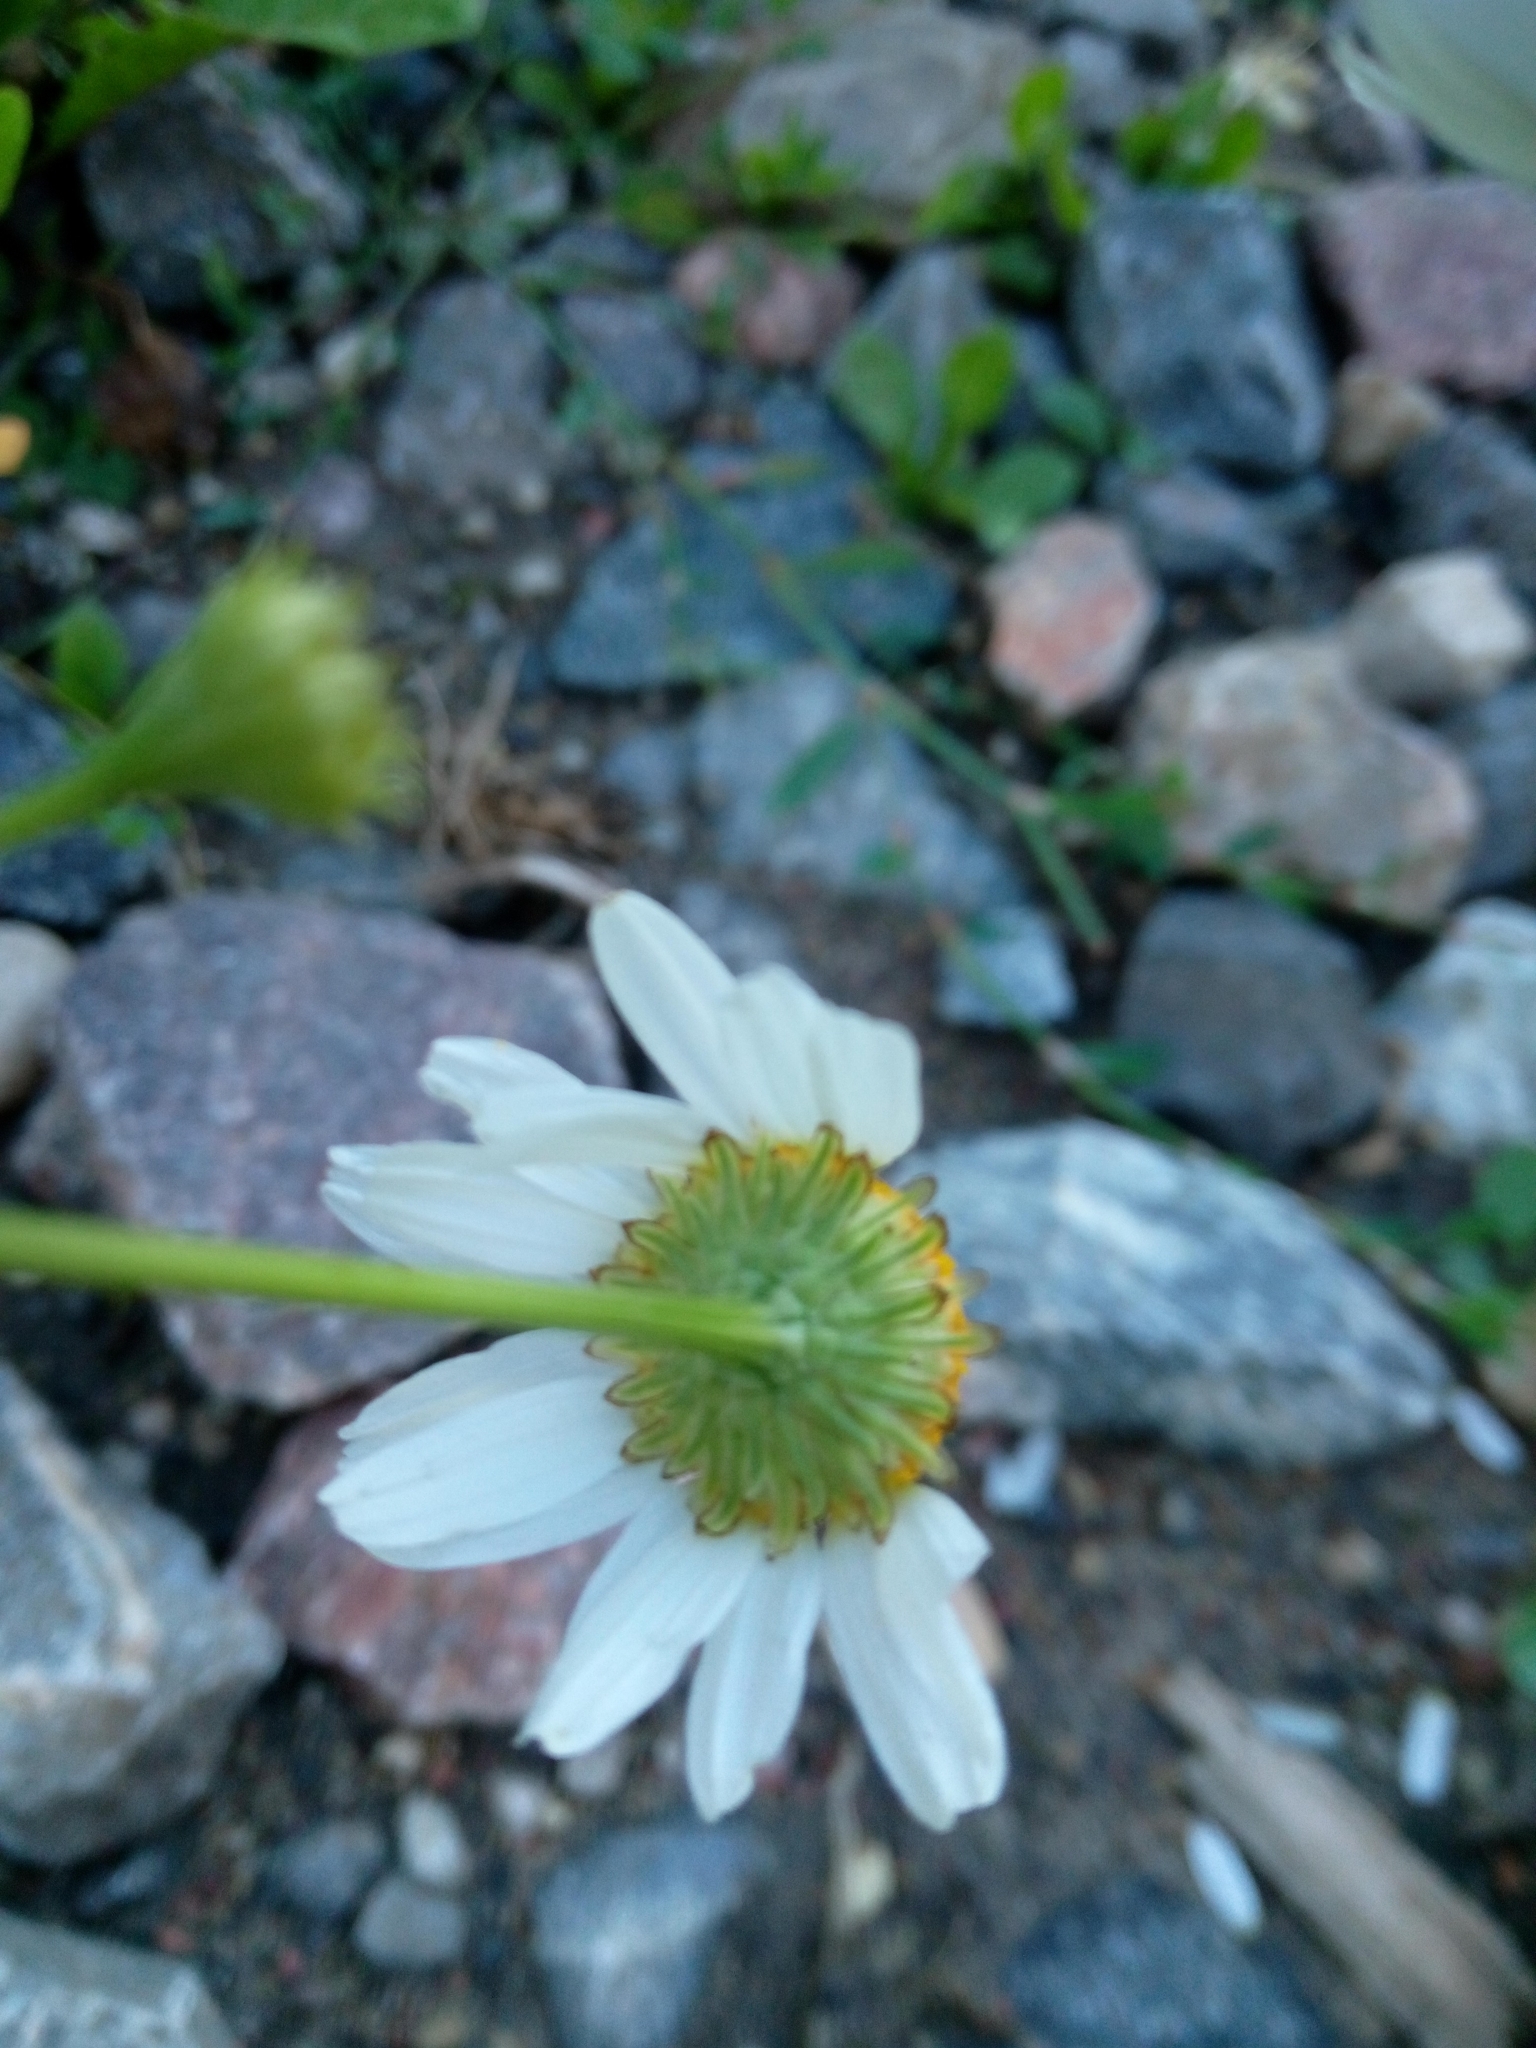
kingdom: Plantae
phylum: Tracheophyta
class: Magnoliopsida
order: Asterales
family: Asteraceae
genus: Tripleurospermum
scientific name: Tripleurospermum inodorum
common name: Scentless mayweed
